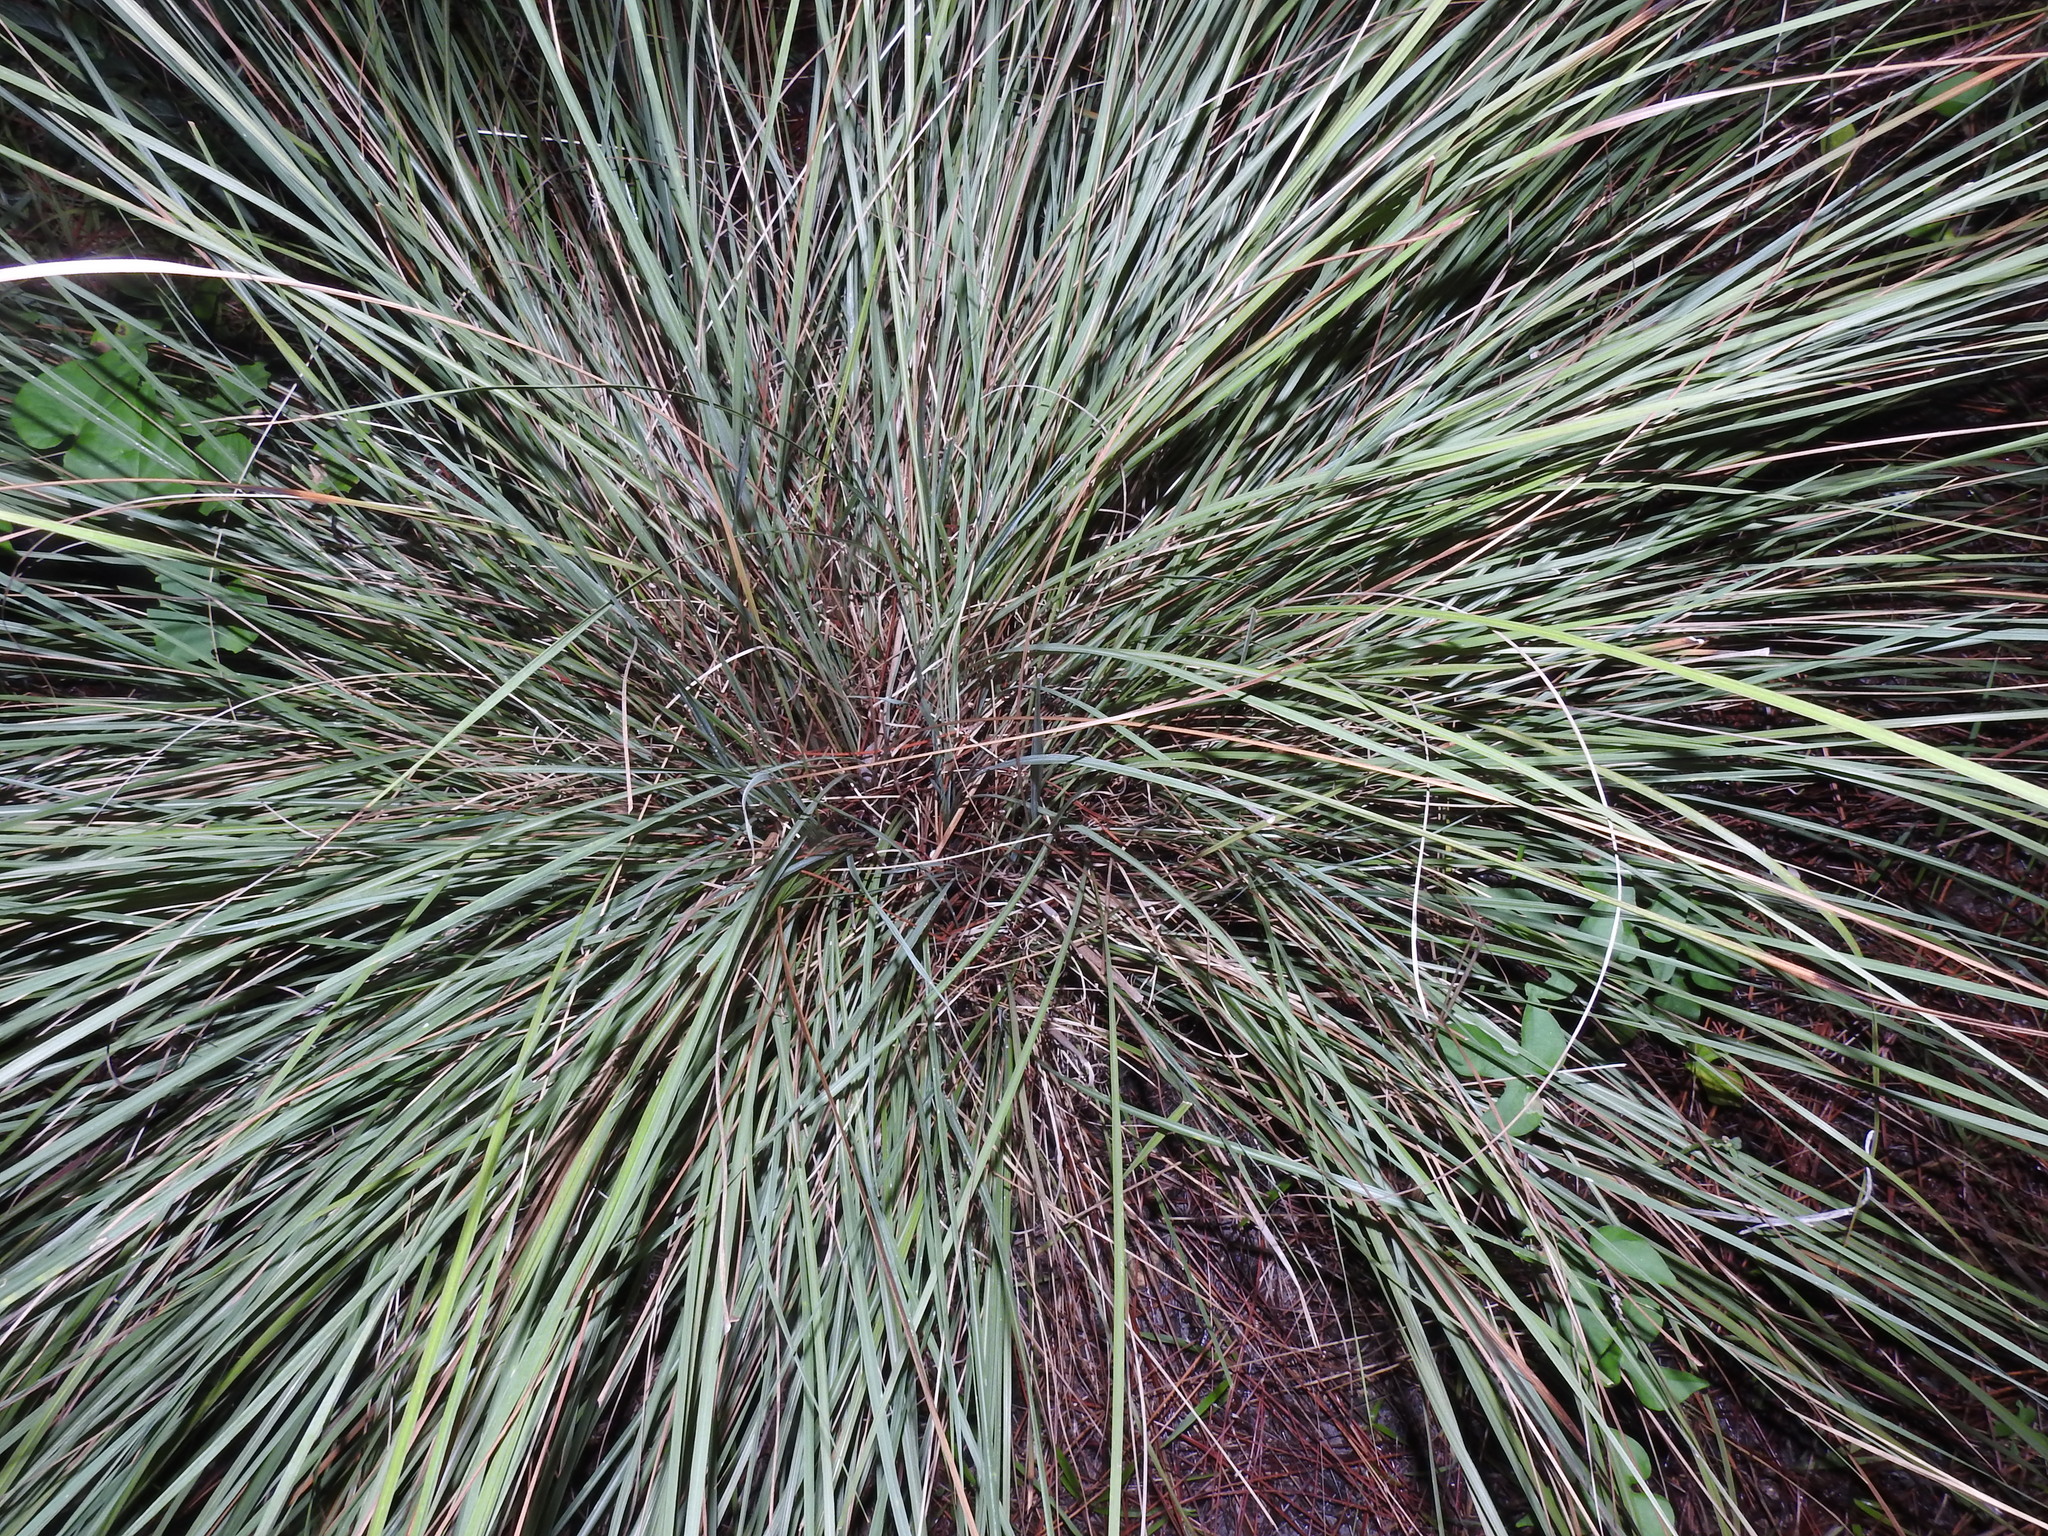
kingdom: Plantae
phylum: Tracheophyta
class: Liliopsida
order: Poales
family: Poaceae
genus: Eragrostis
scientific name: Eragrostis elliottii
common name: Elliott's love grass
